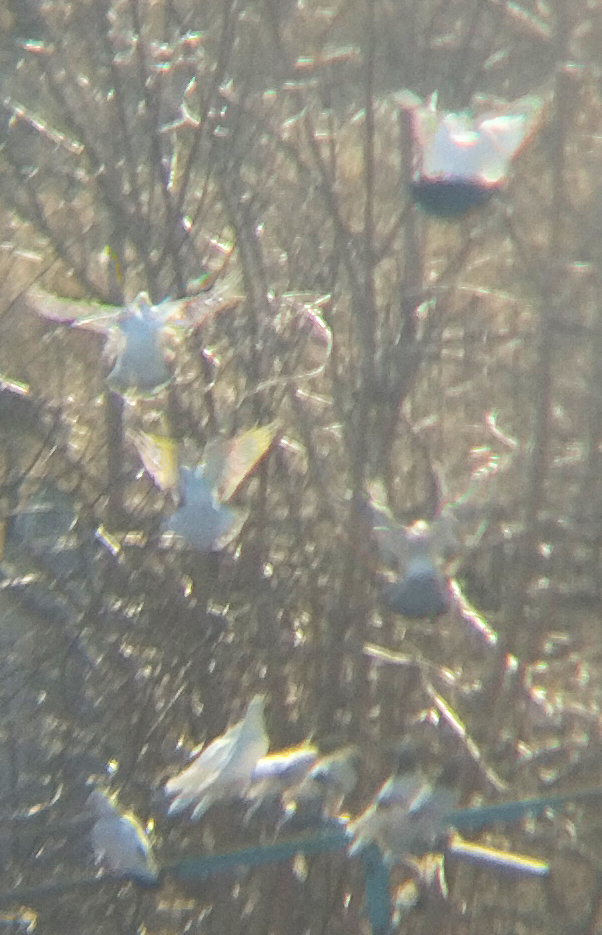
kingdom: Animalia
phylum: Chordata
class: Aves
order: Columbiformes
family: Columbidae
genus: Columba
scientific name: Columba livia
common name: Rock pigeon
